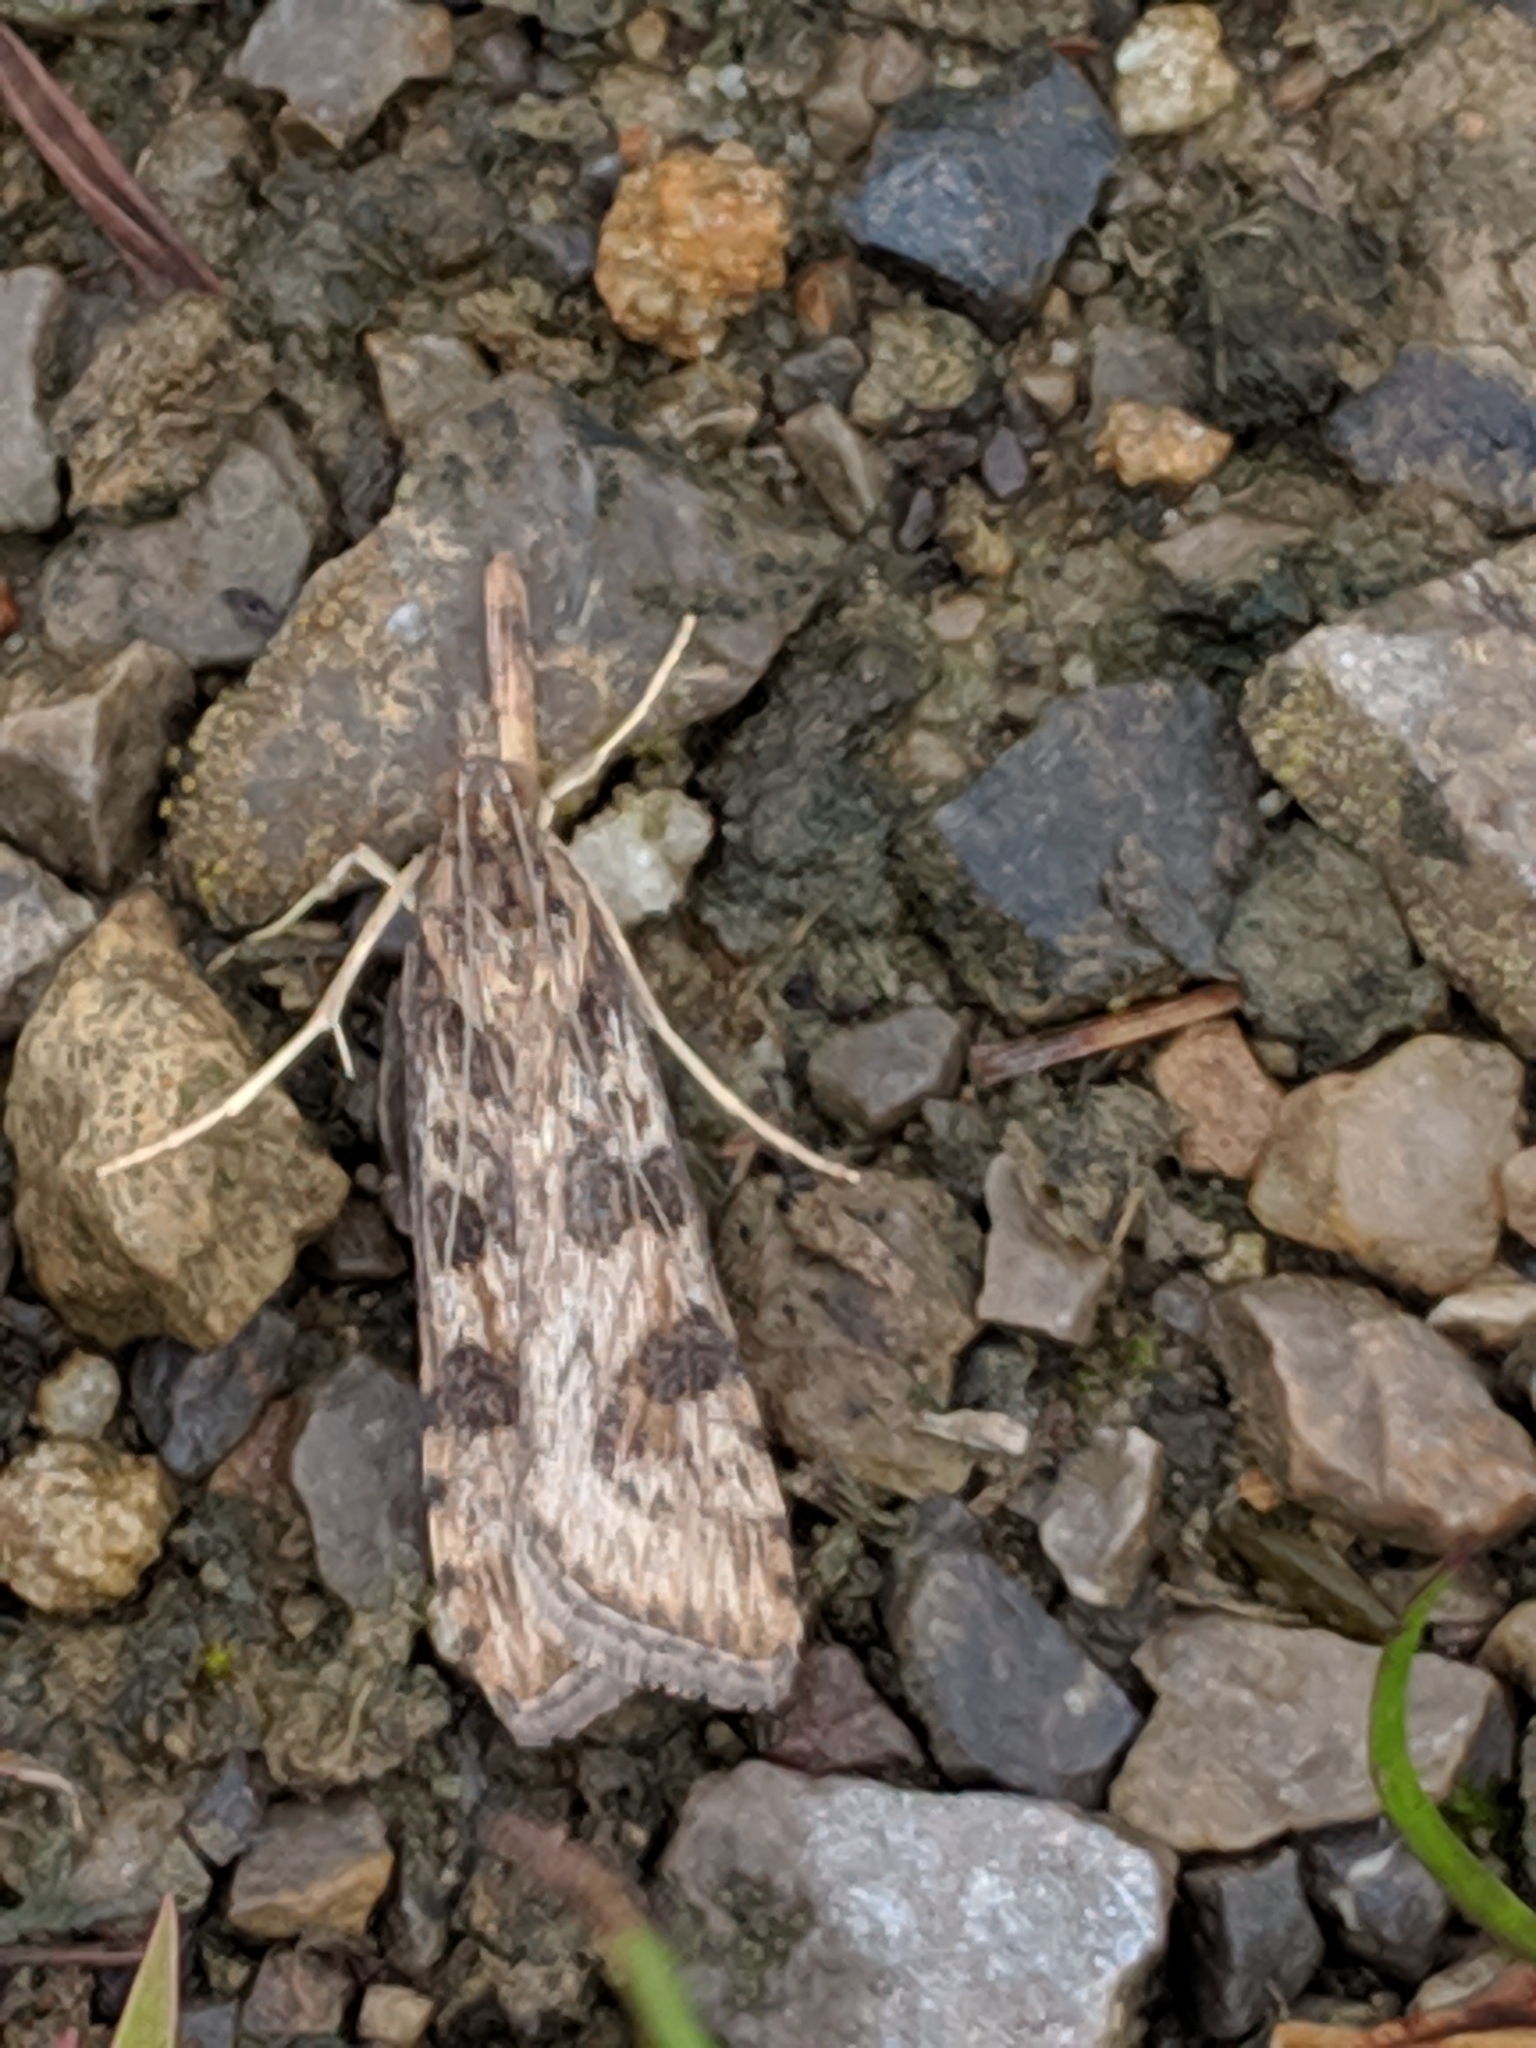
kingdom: Animalia
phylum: Arthropoda
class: Insecta
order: Lepidoptera
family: Crambidae
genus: Nomophila
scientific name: Nomophila nearctica
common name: American rush veneer
